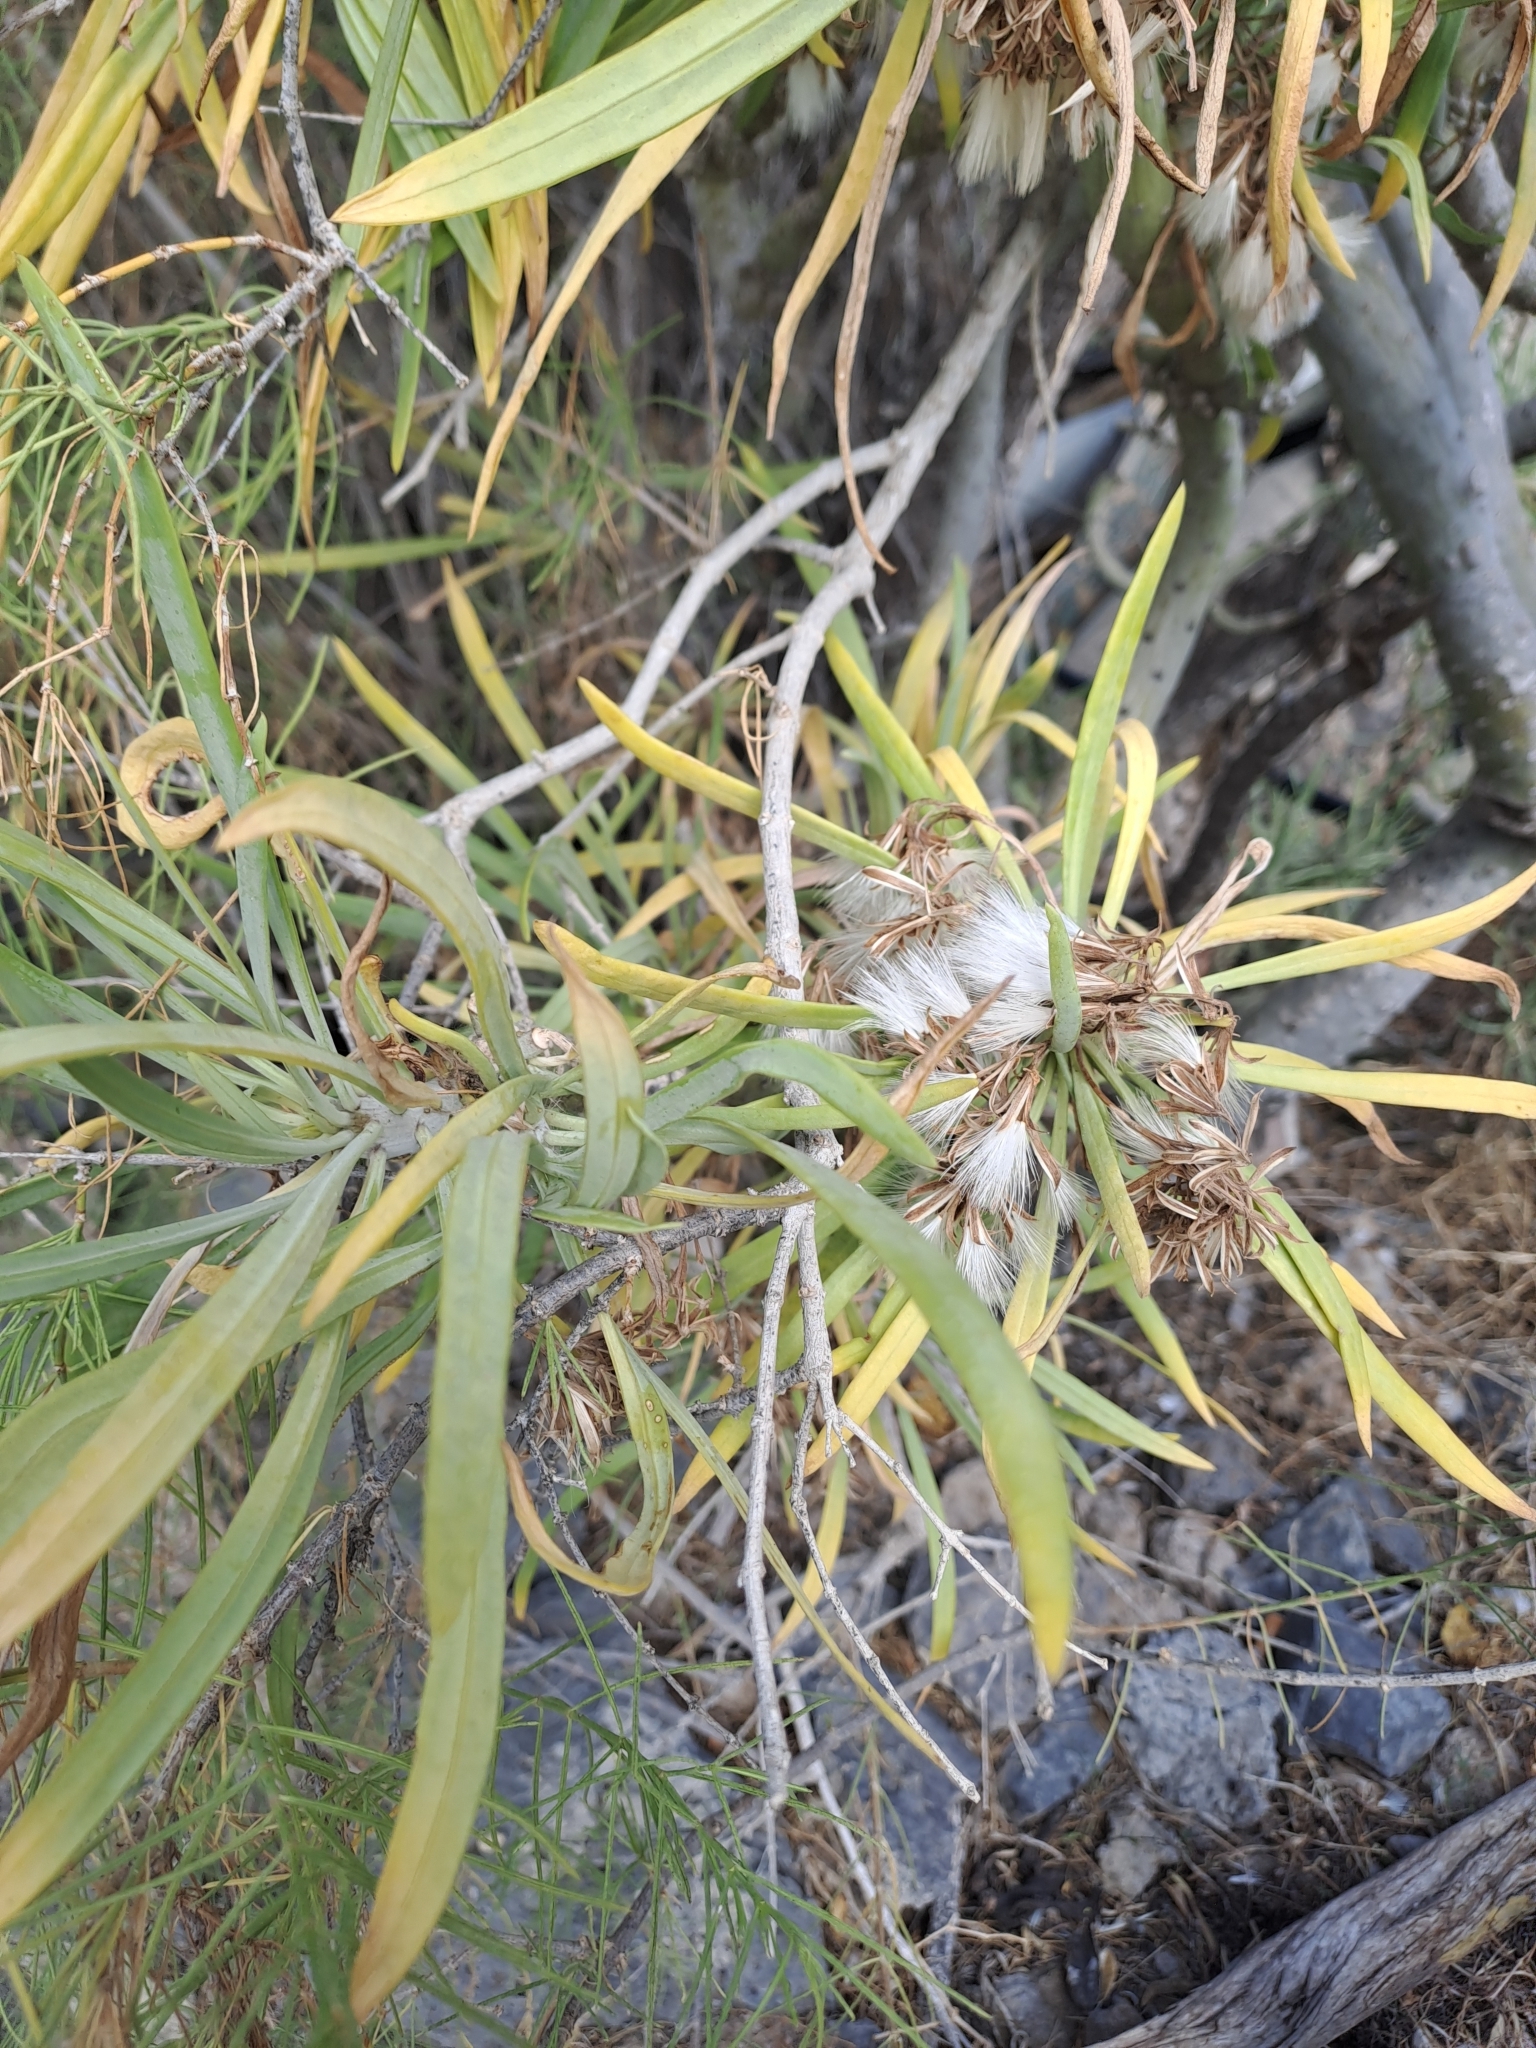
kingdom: Plantae
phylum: Tracheophyta
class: Magnoliopsida
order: Asterales
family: Asteraceae
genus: Kleinia
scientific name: Kleinia neriifolia
